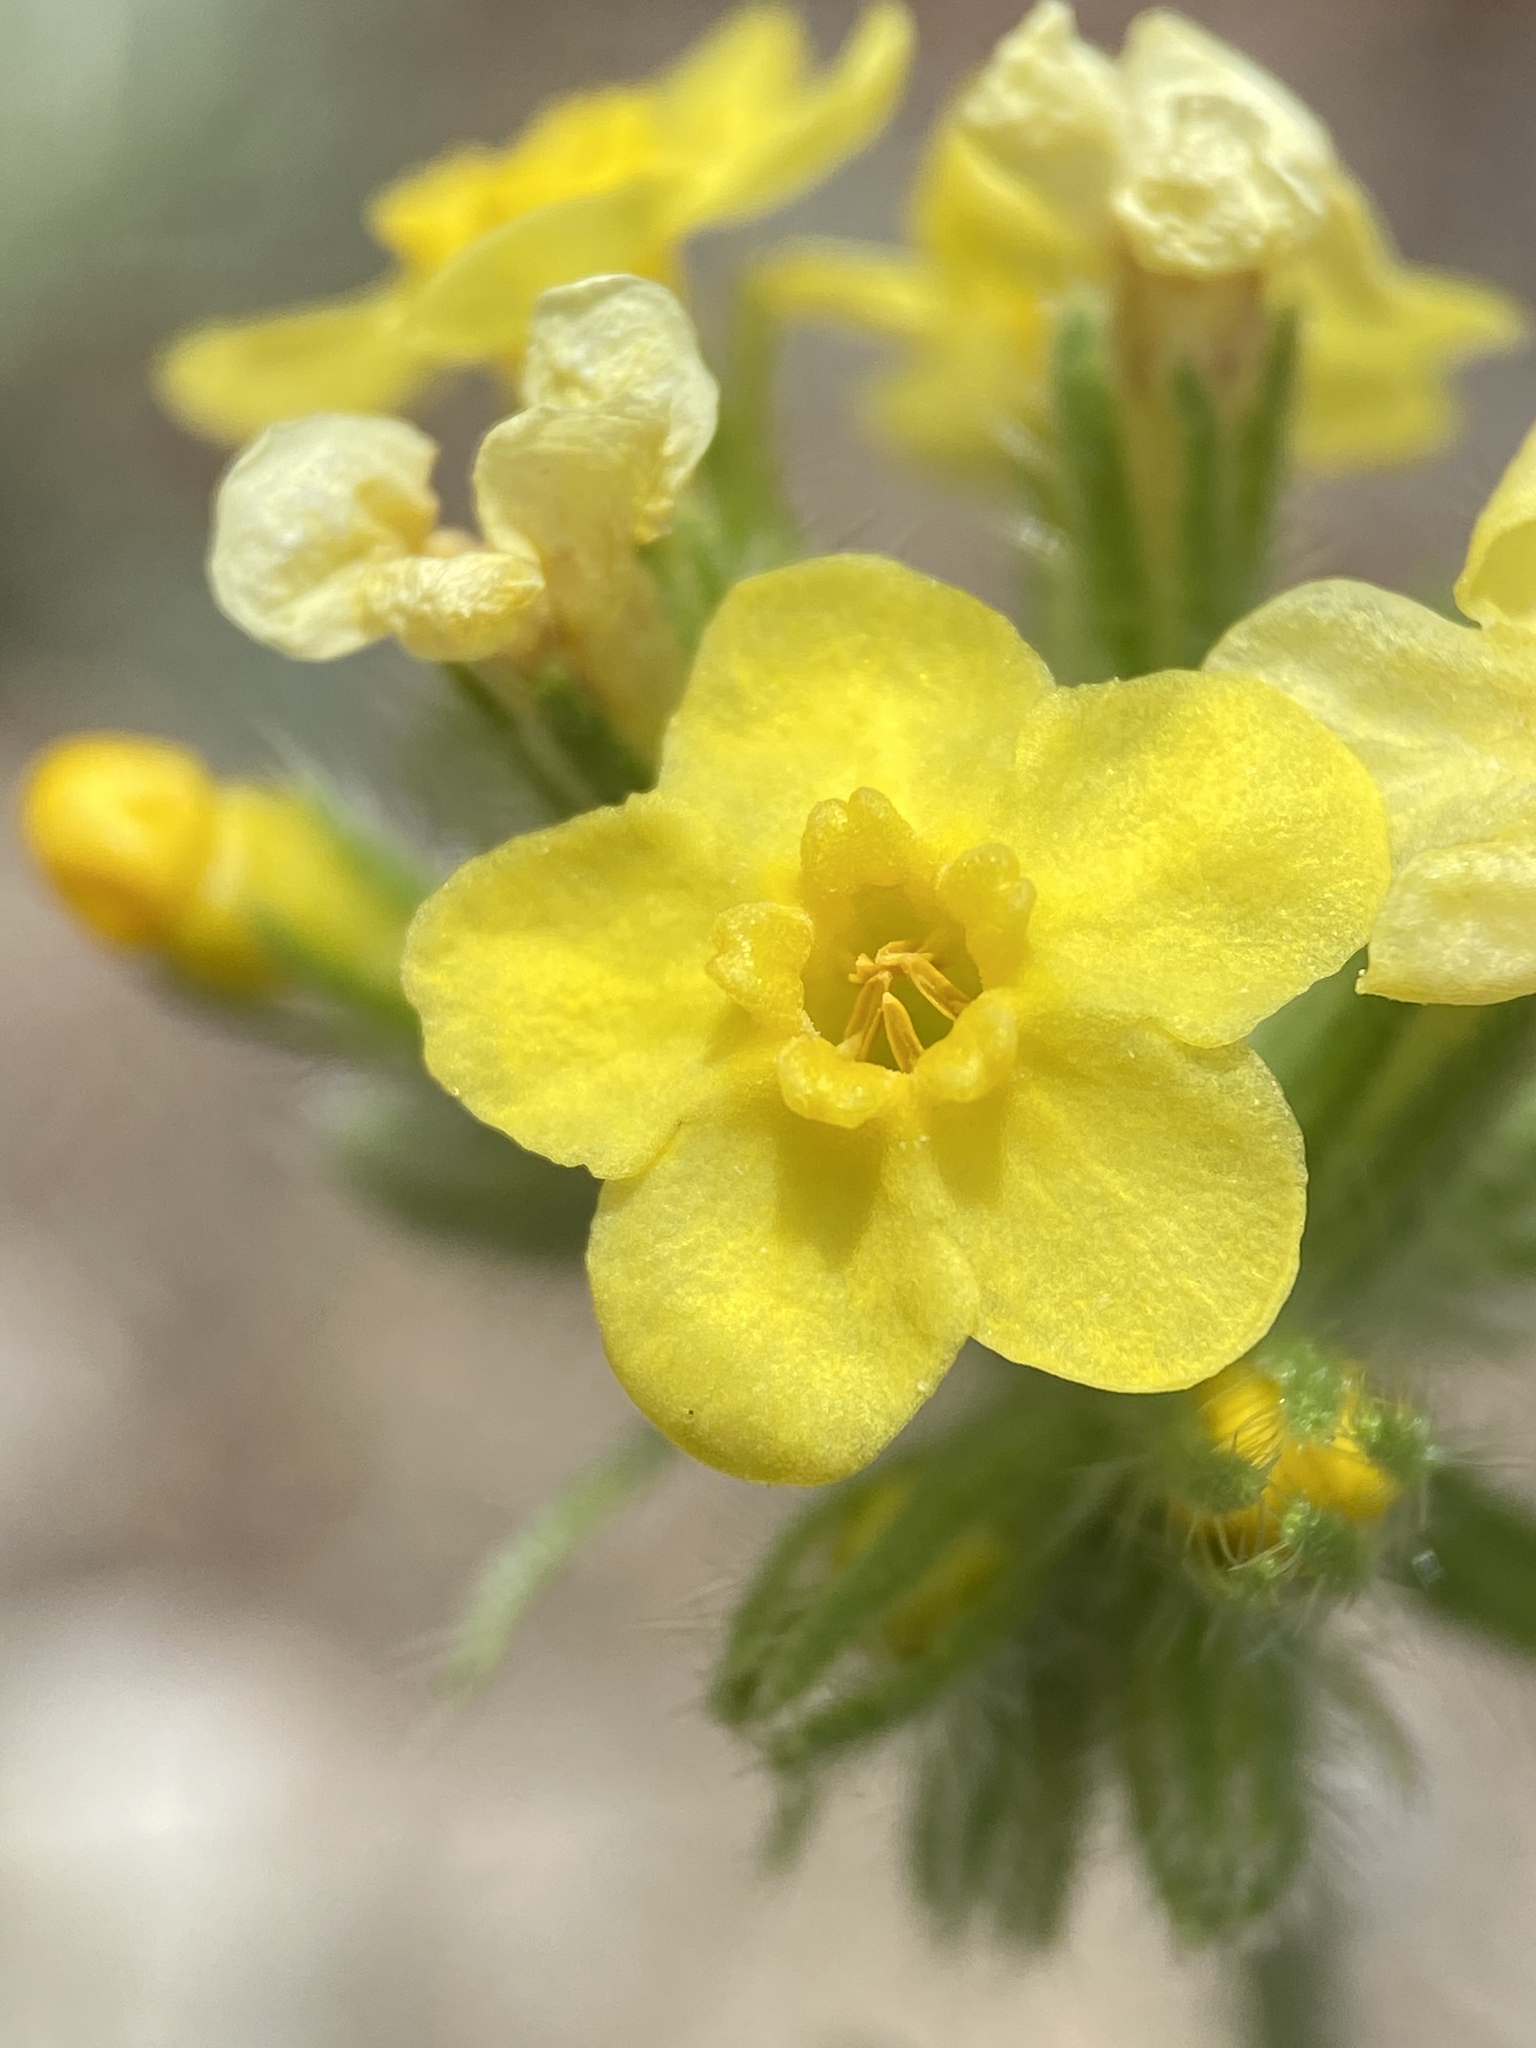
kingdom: Plantae
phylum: Tracheophyta
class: Magnoliopsida
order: Boraginales
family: Boraginaceae
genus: Oreocarya
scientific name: Oreocarya confertiflora
